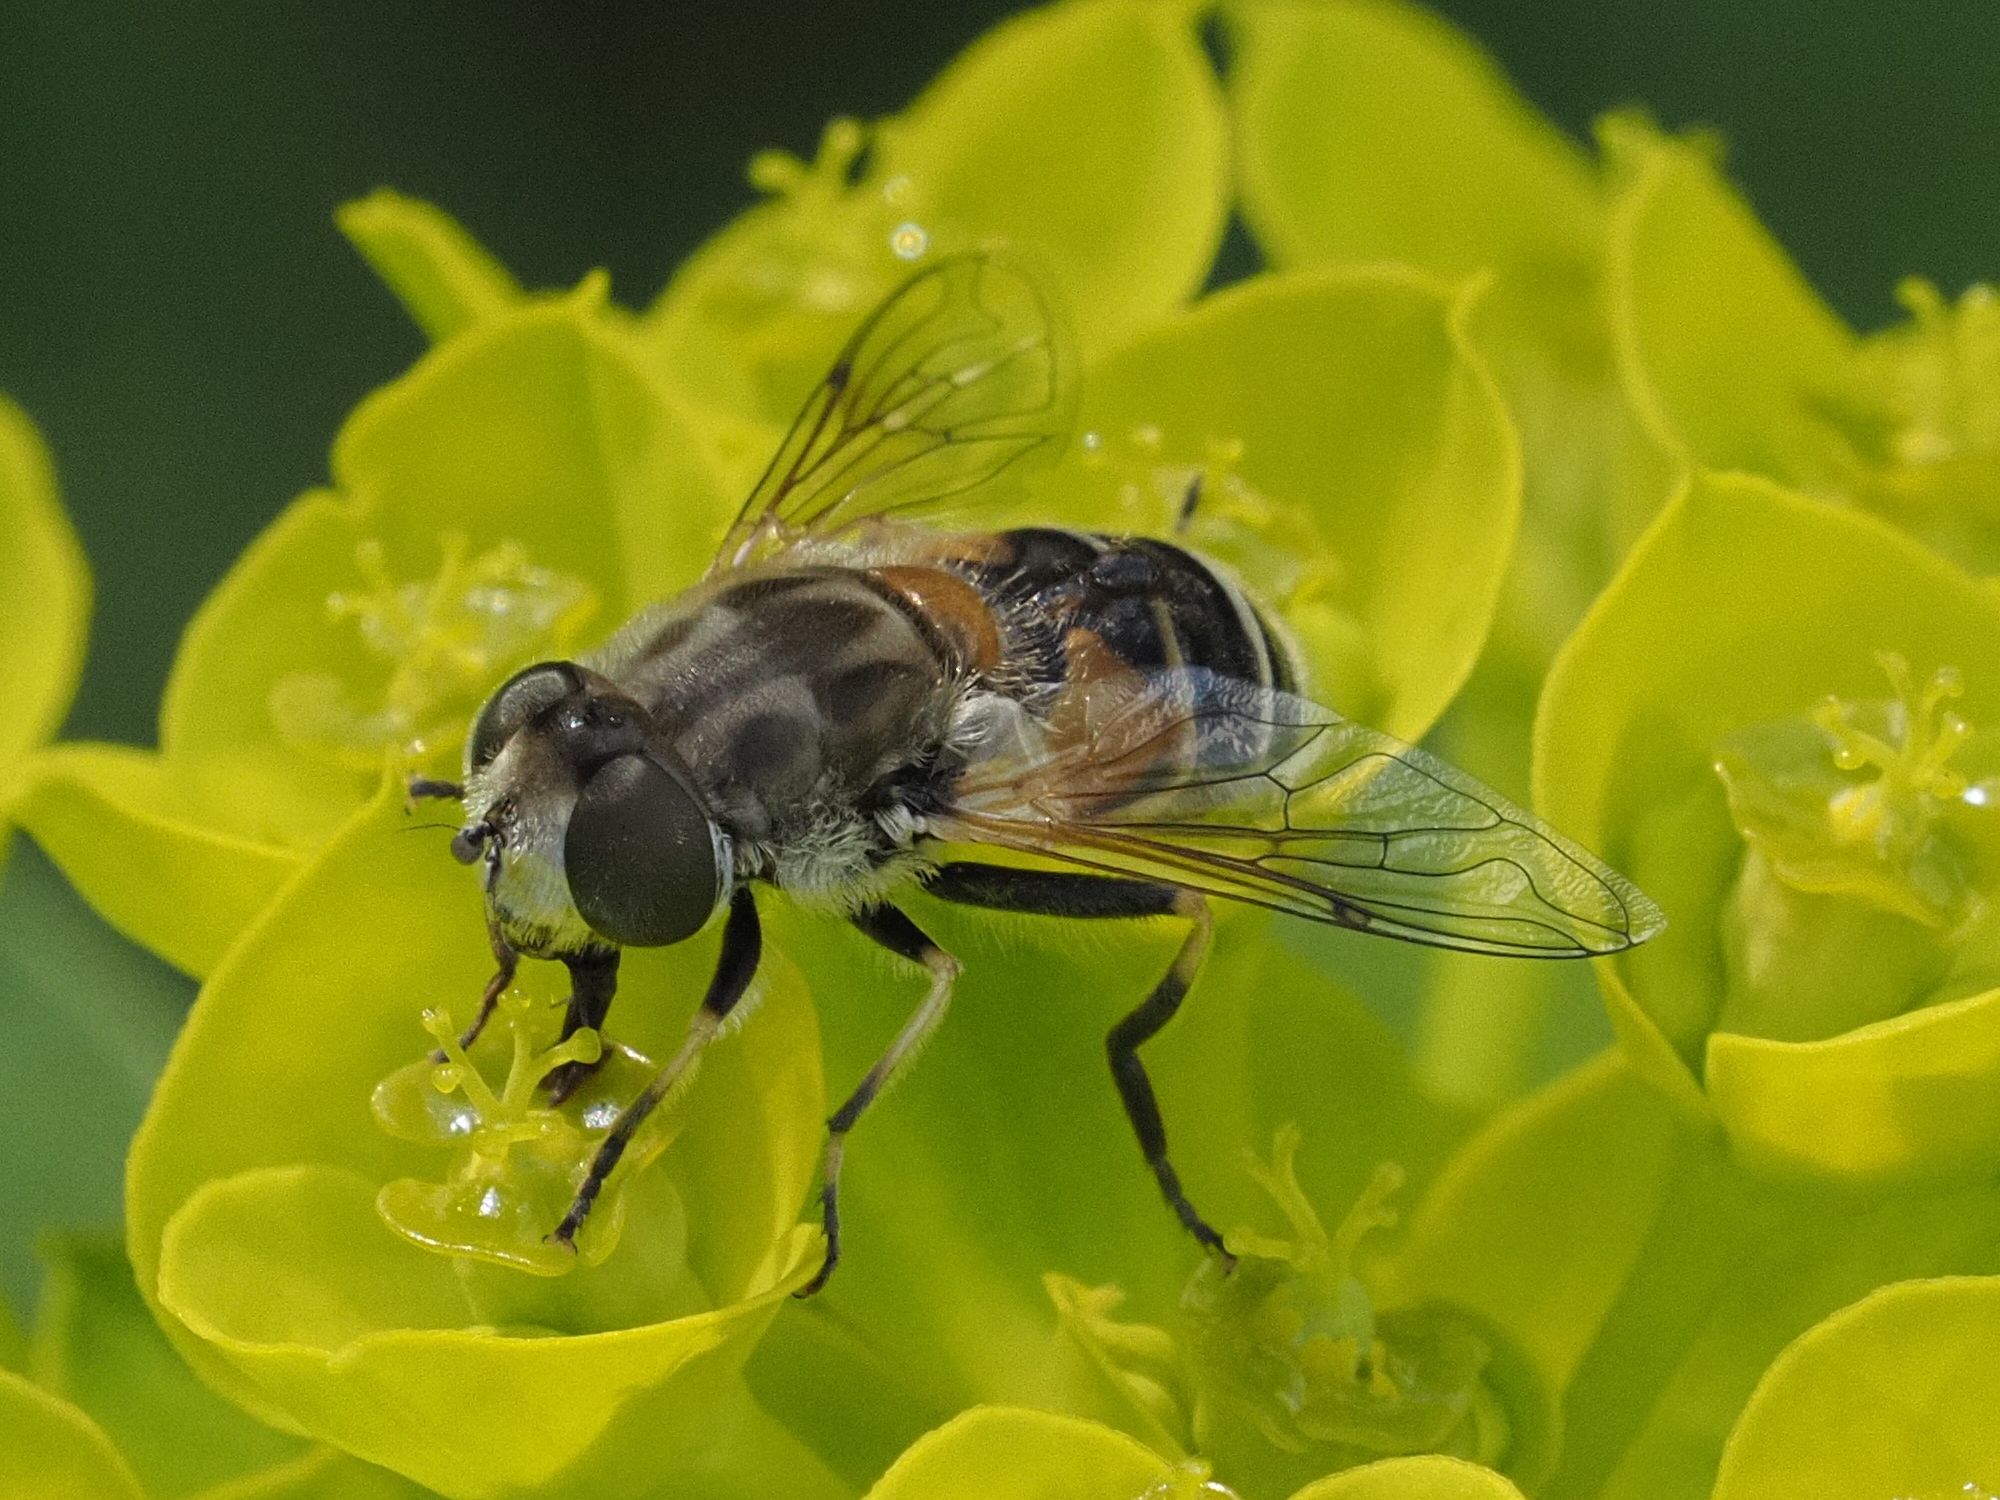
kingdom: Animalia
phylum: Arthropoda
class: Insecta
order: Diptera
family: Syrphidae
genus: Eristalis
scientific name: Eristalis arbustorum
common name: Hover fly
